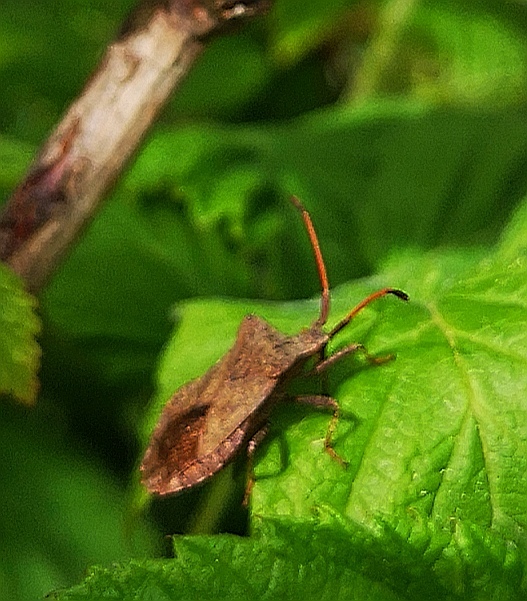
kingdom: Animalia
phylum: Arthropoda
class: Insecta
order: Hemiptera
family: Coreidae
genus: Coreus
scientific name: Coreus marginatus
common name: Dock bug
